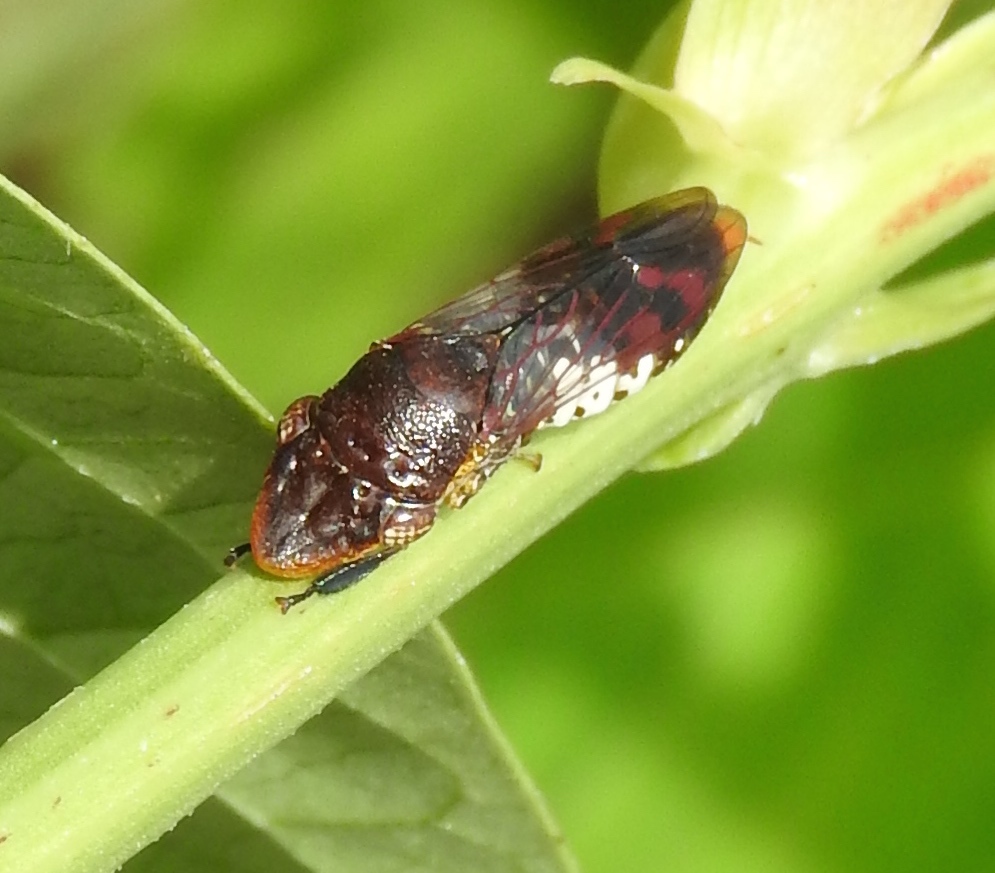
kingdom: Animalia
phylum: Arthropoda
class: Insecta
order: Hemiptera
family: Cicadellidae
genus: Homalodisca
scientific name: Homalodisca ichthyocephala
